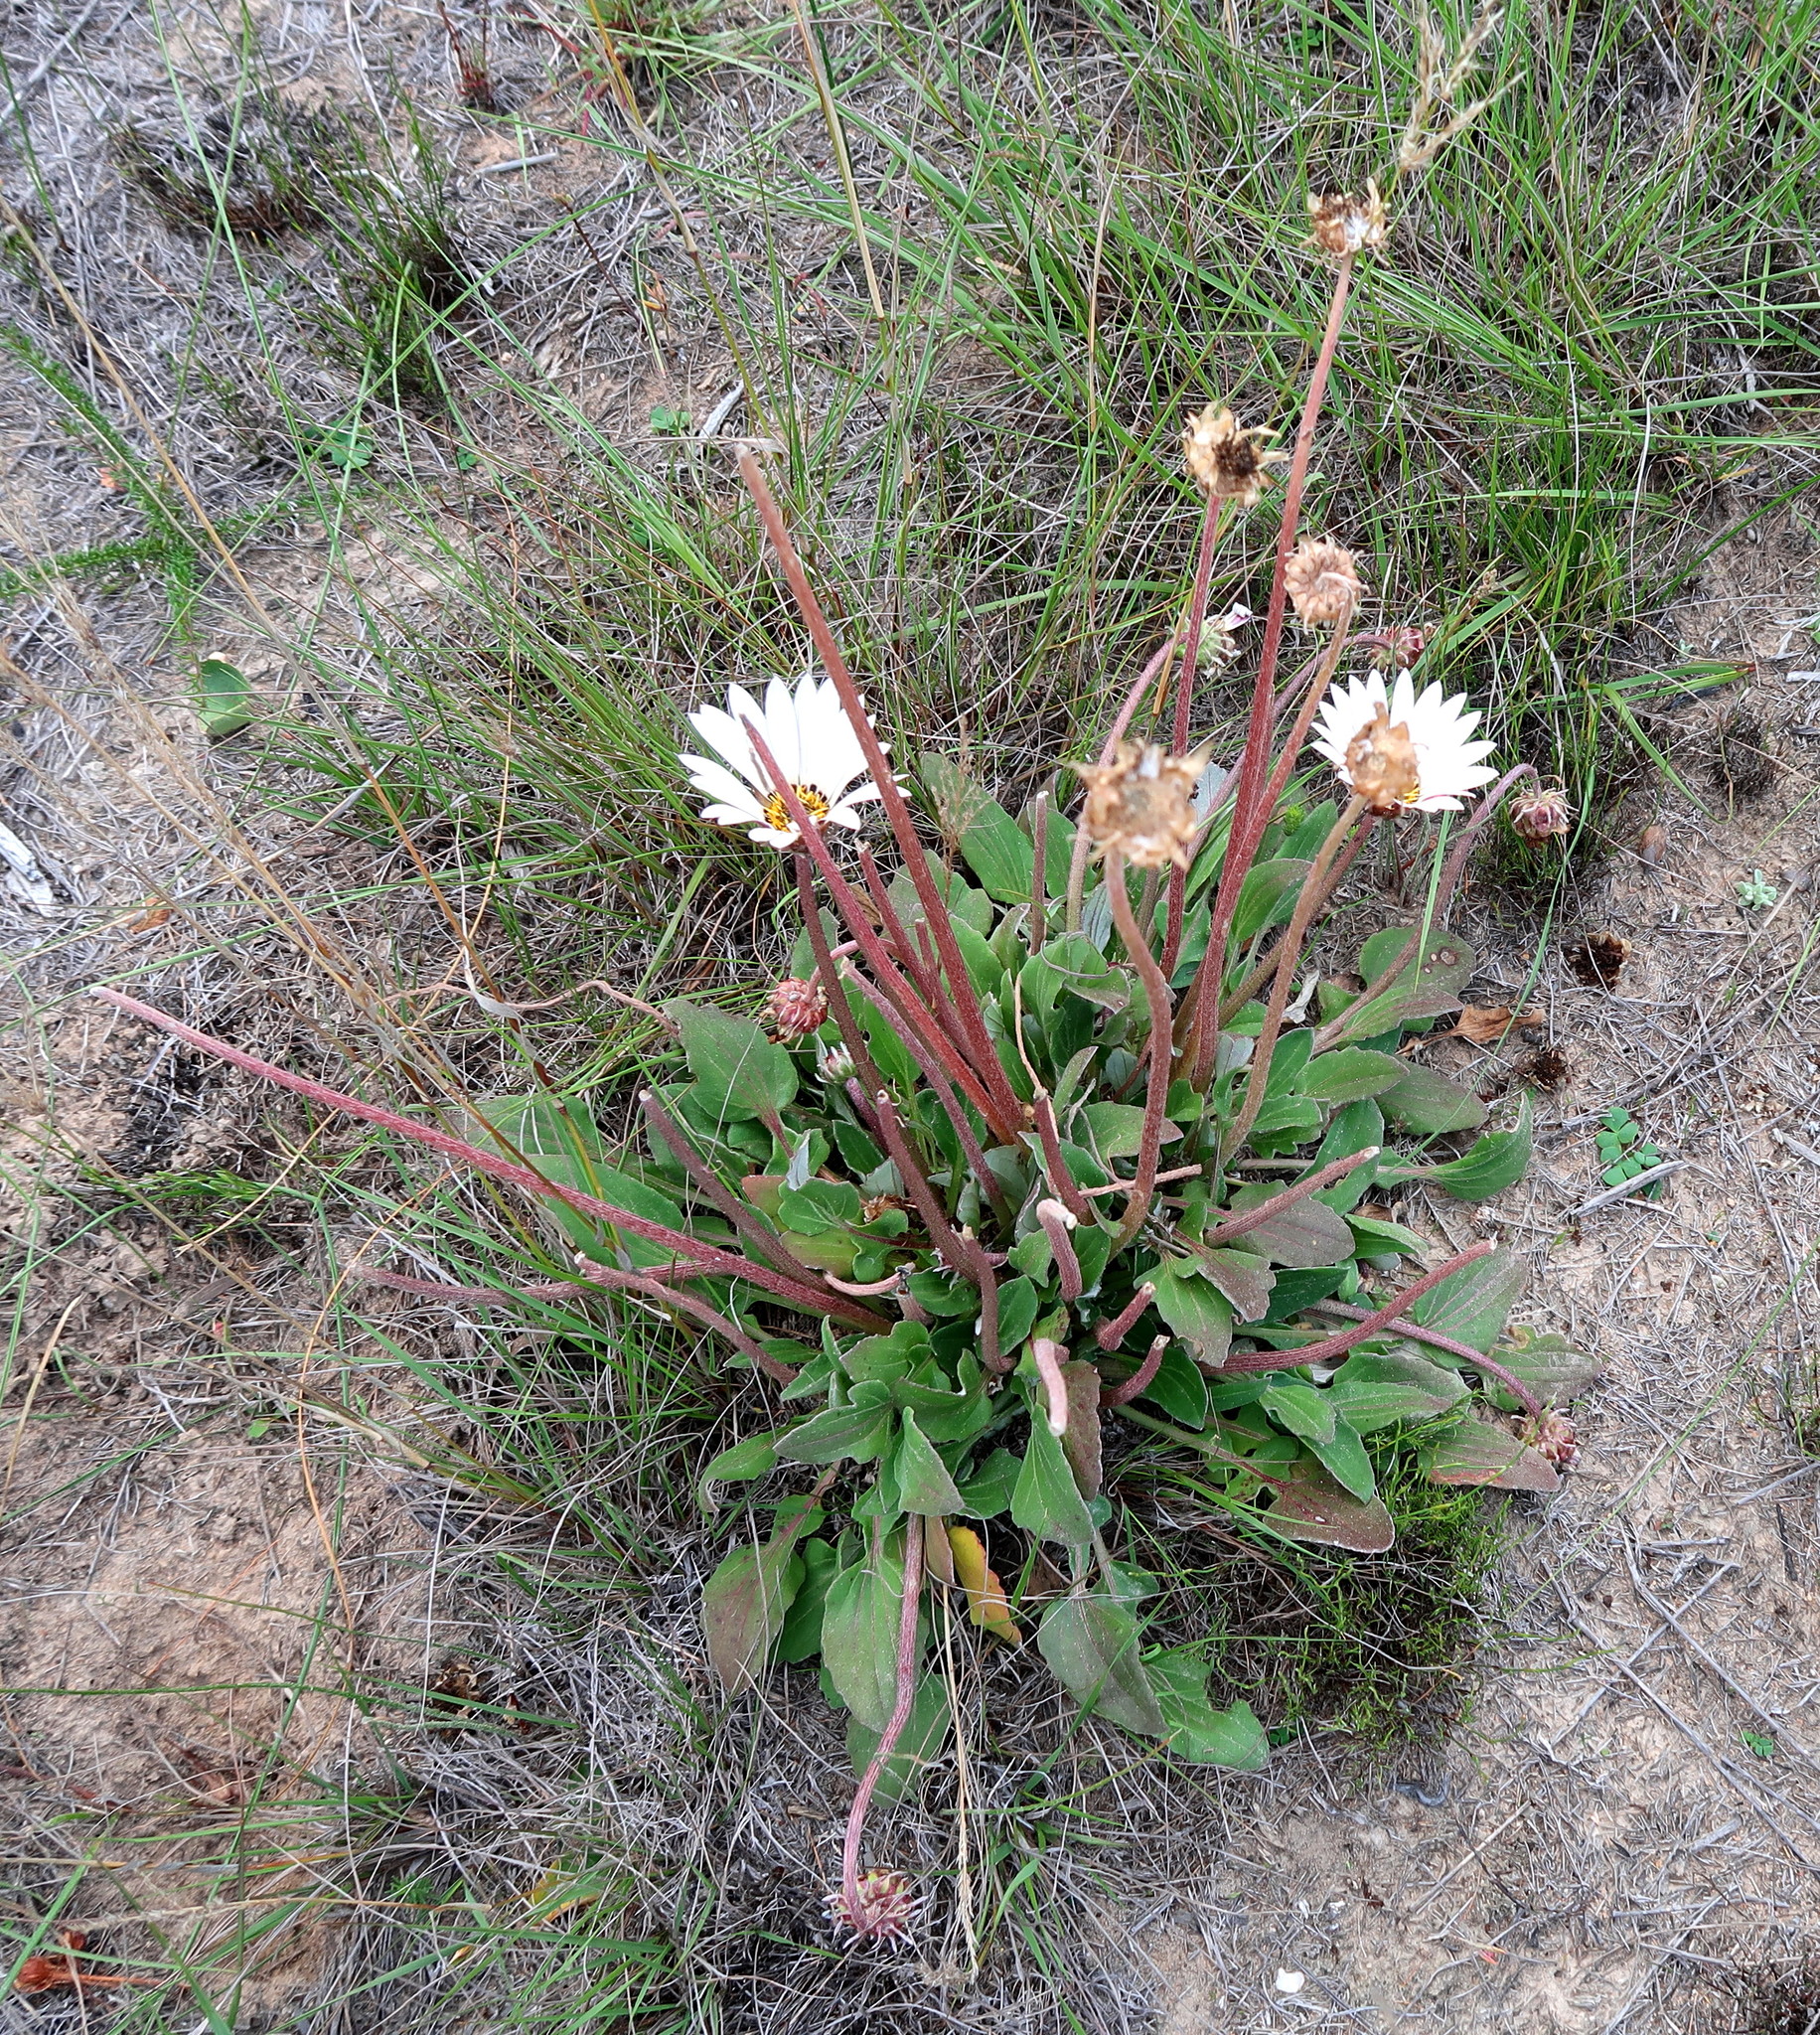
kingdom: Plantae
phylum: Tracheophyta
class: Magnoliopsida
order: Asterales
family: Asteraceae
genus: Arctotis
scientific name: Arctotis acaulis
